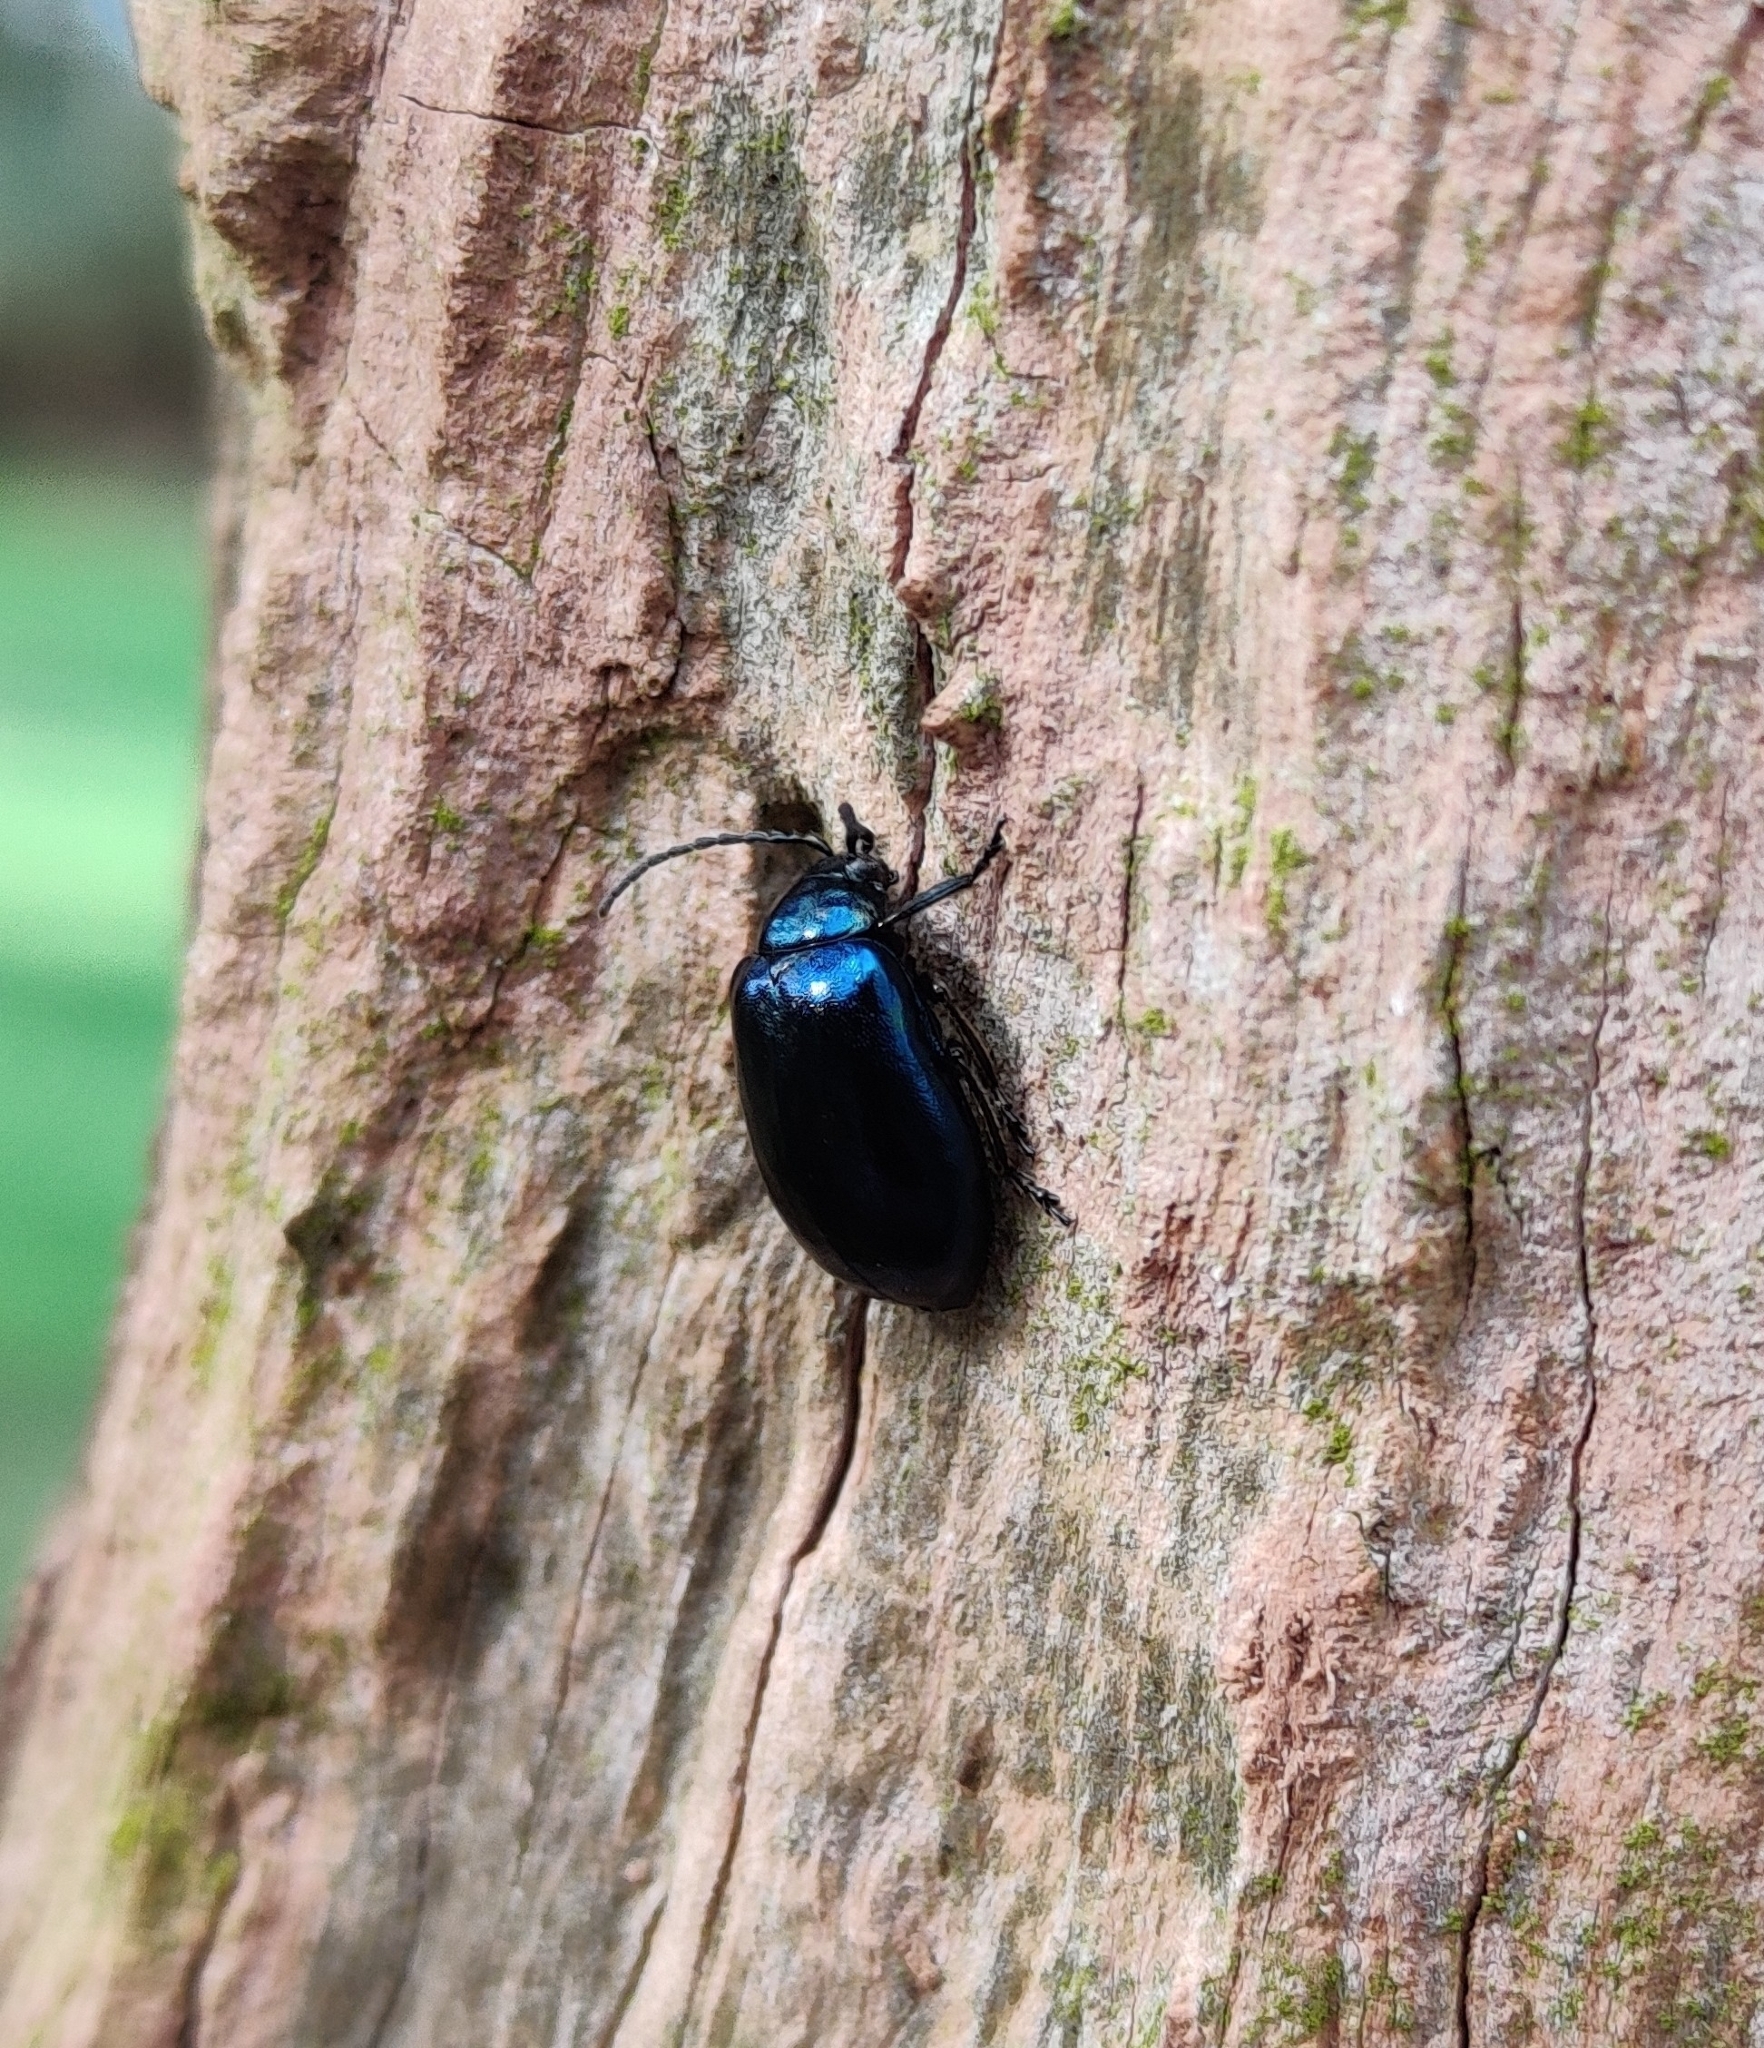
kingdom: Animalia
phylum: Arthropoda
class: Insecta
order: Coleoptera
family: Chrysomelidae
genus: Agelastica
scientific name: Agelastica alni
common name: Alder leaf beetle
